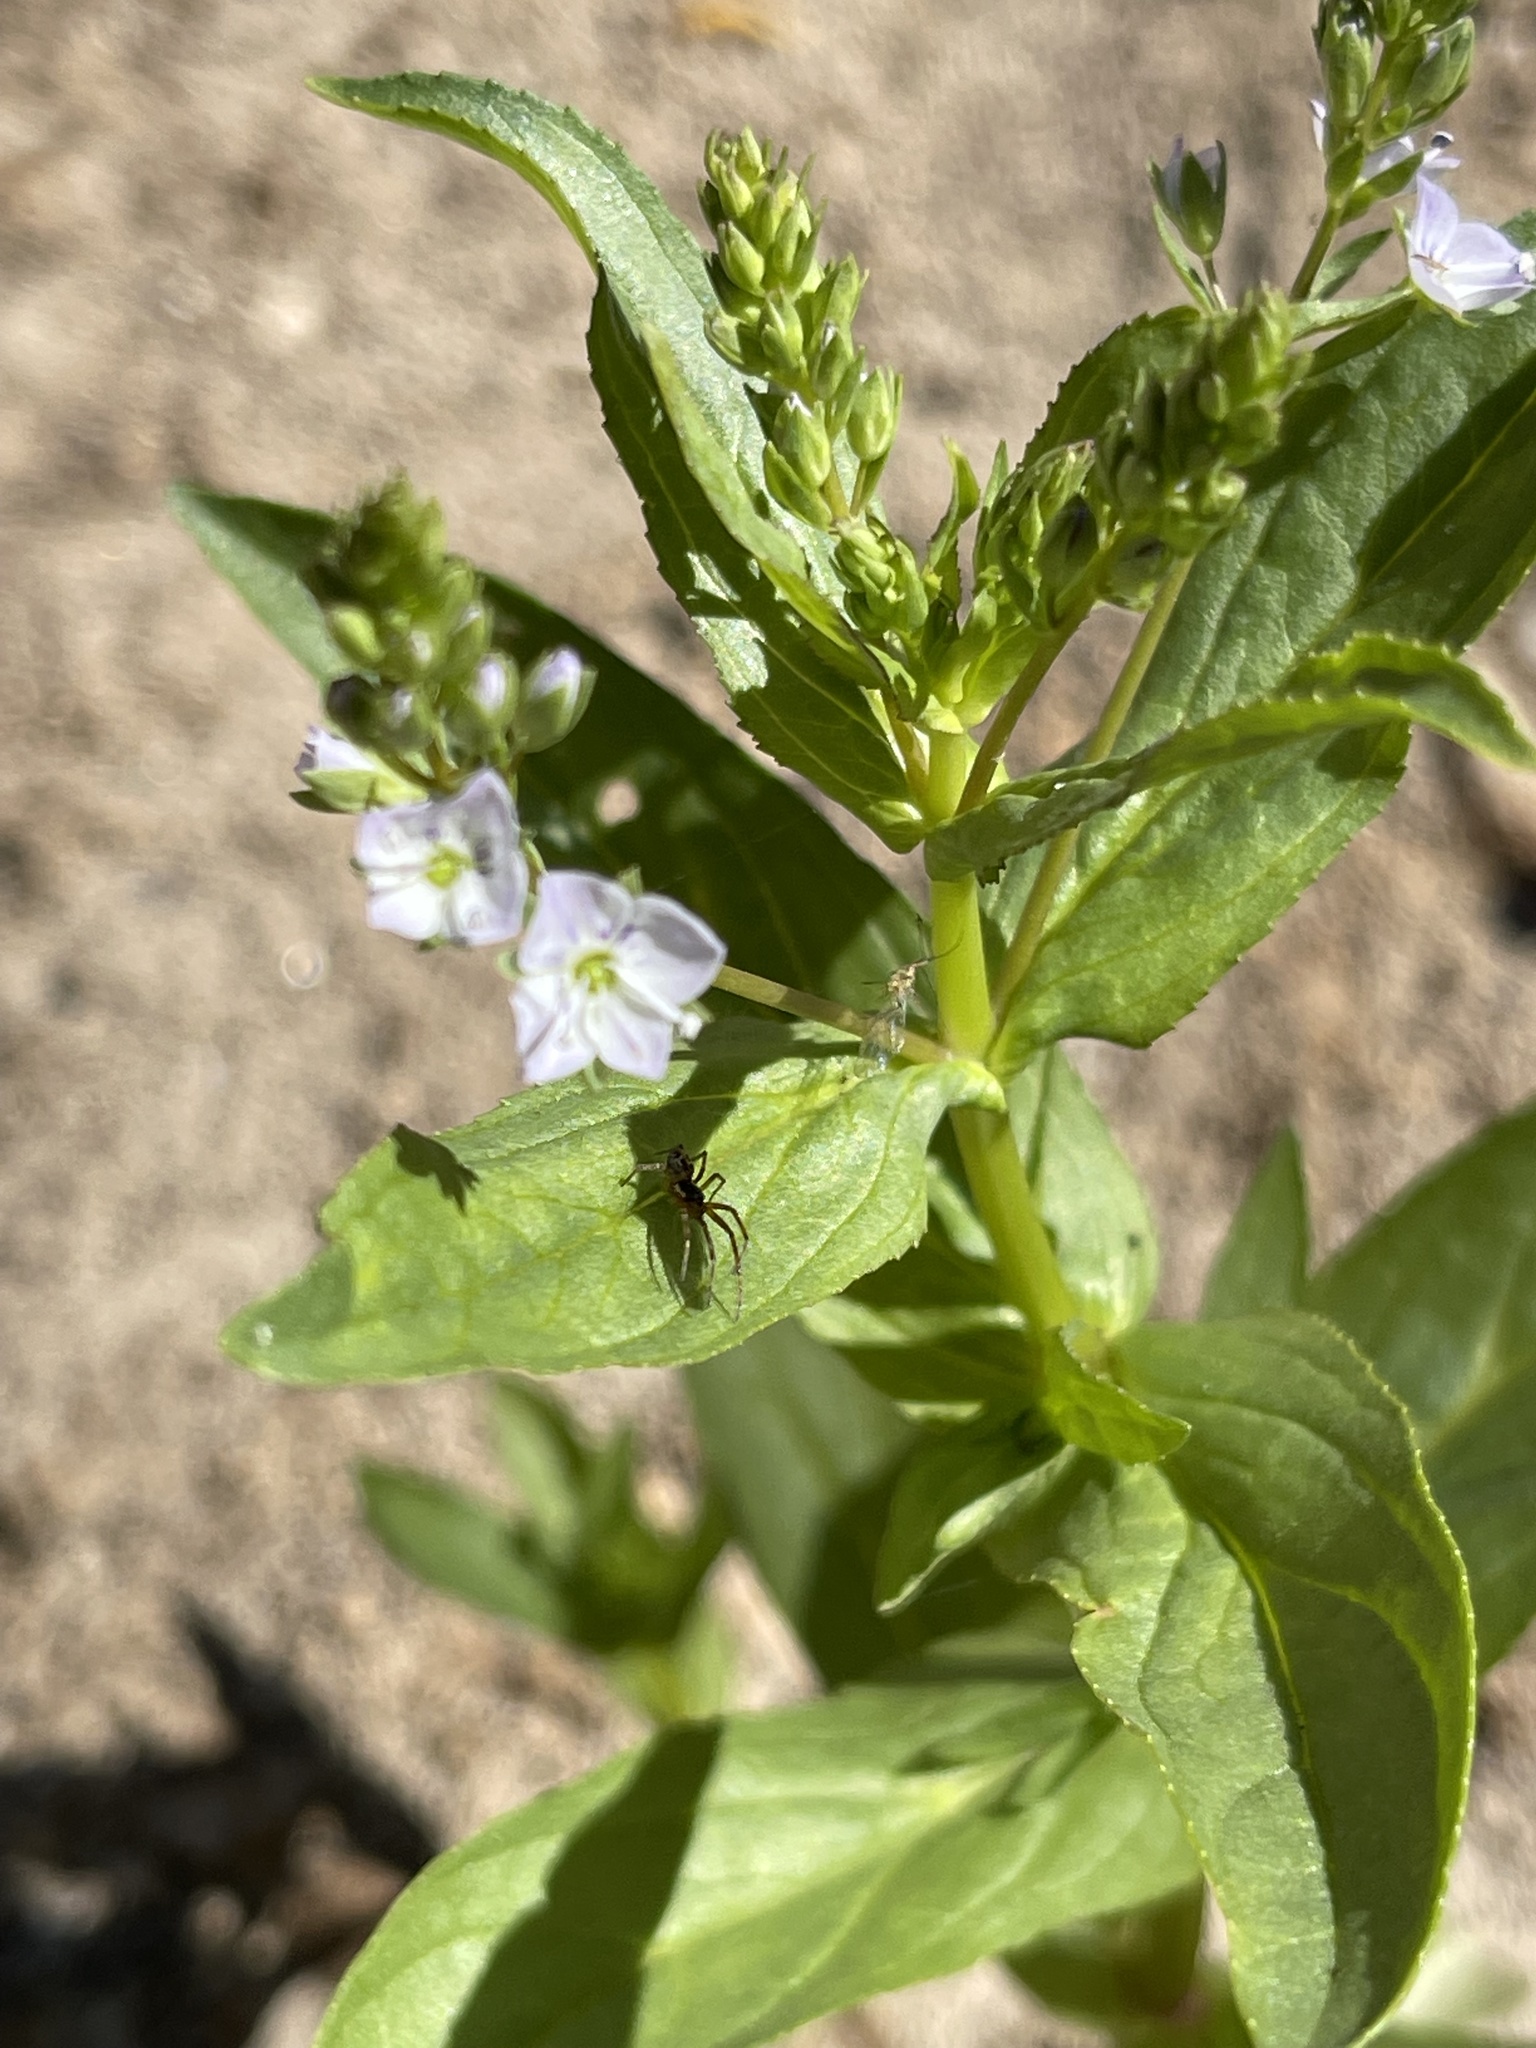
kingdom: Plantae
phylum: Tracheophyta
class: Magnoliopsida
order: Lamiales
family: Plantaginaceae
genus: Veronica
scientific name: Veronica anagallis-aquatica
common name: Water speedwell
